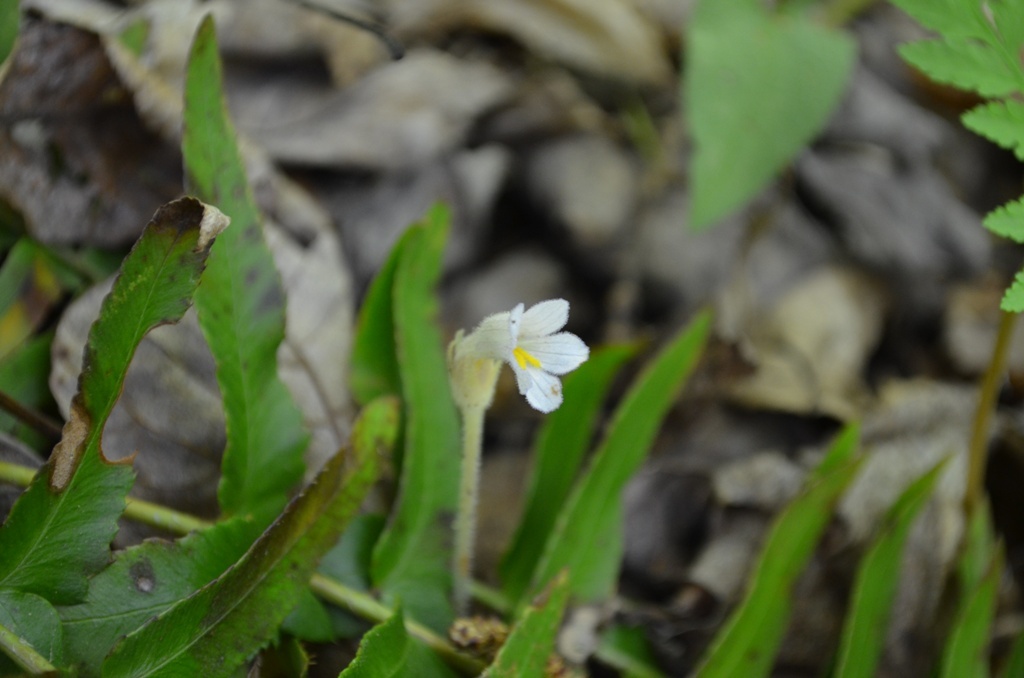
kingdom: Plantae
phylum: Tracheophyta
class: Magnoliopsida
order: Lamiales
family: Orobanchaceae
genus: Aphyllon
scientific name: Aphyllon uniflorum
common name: One-flowered broomrape
